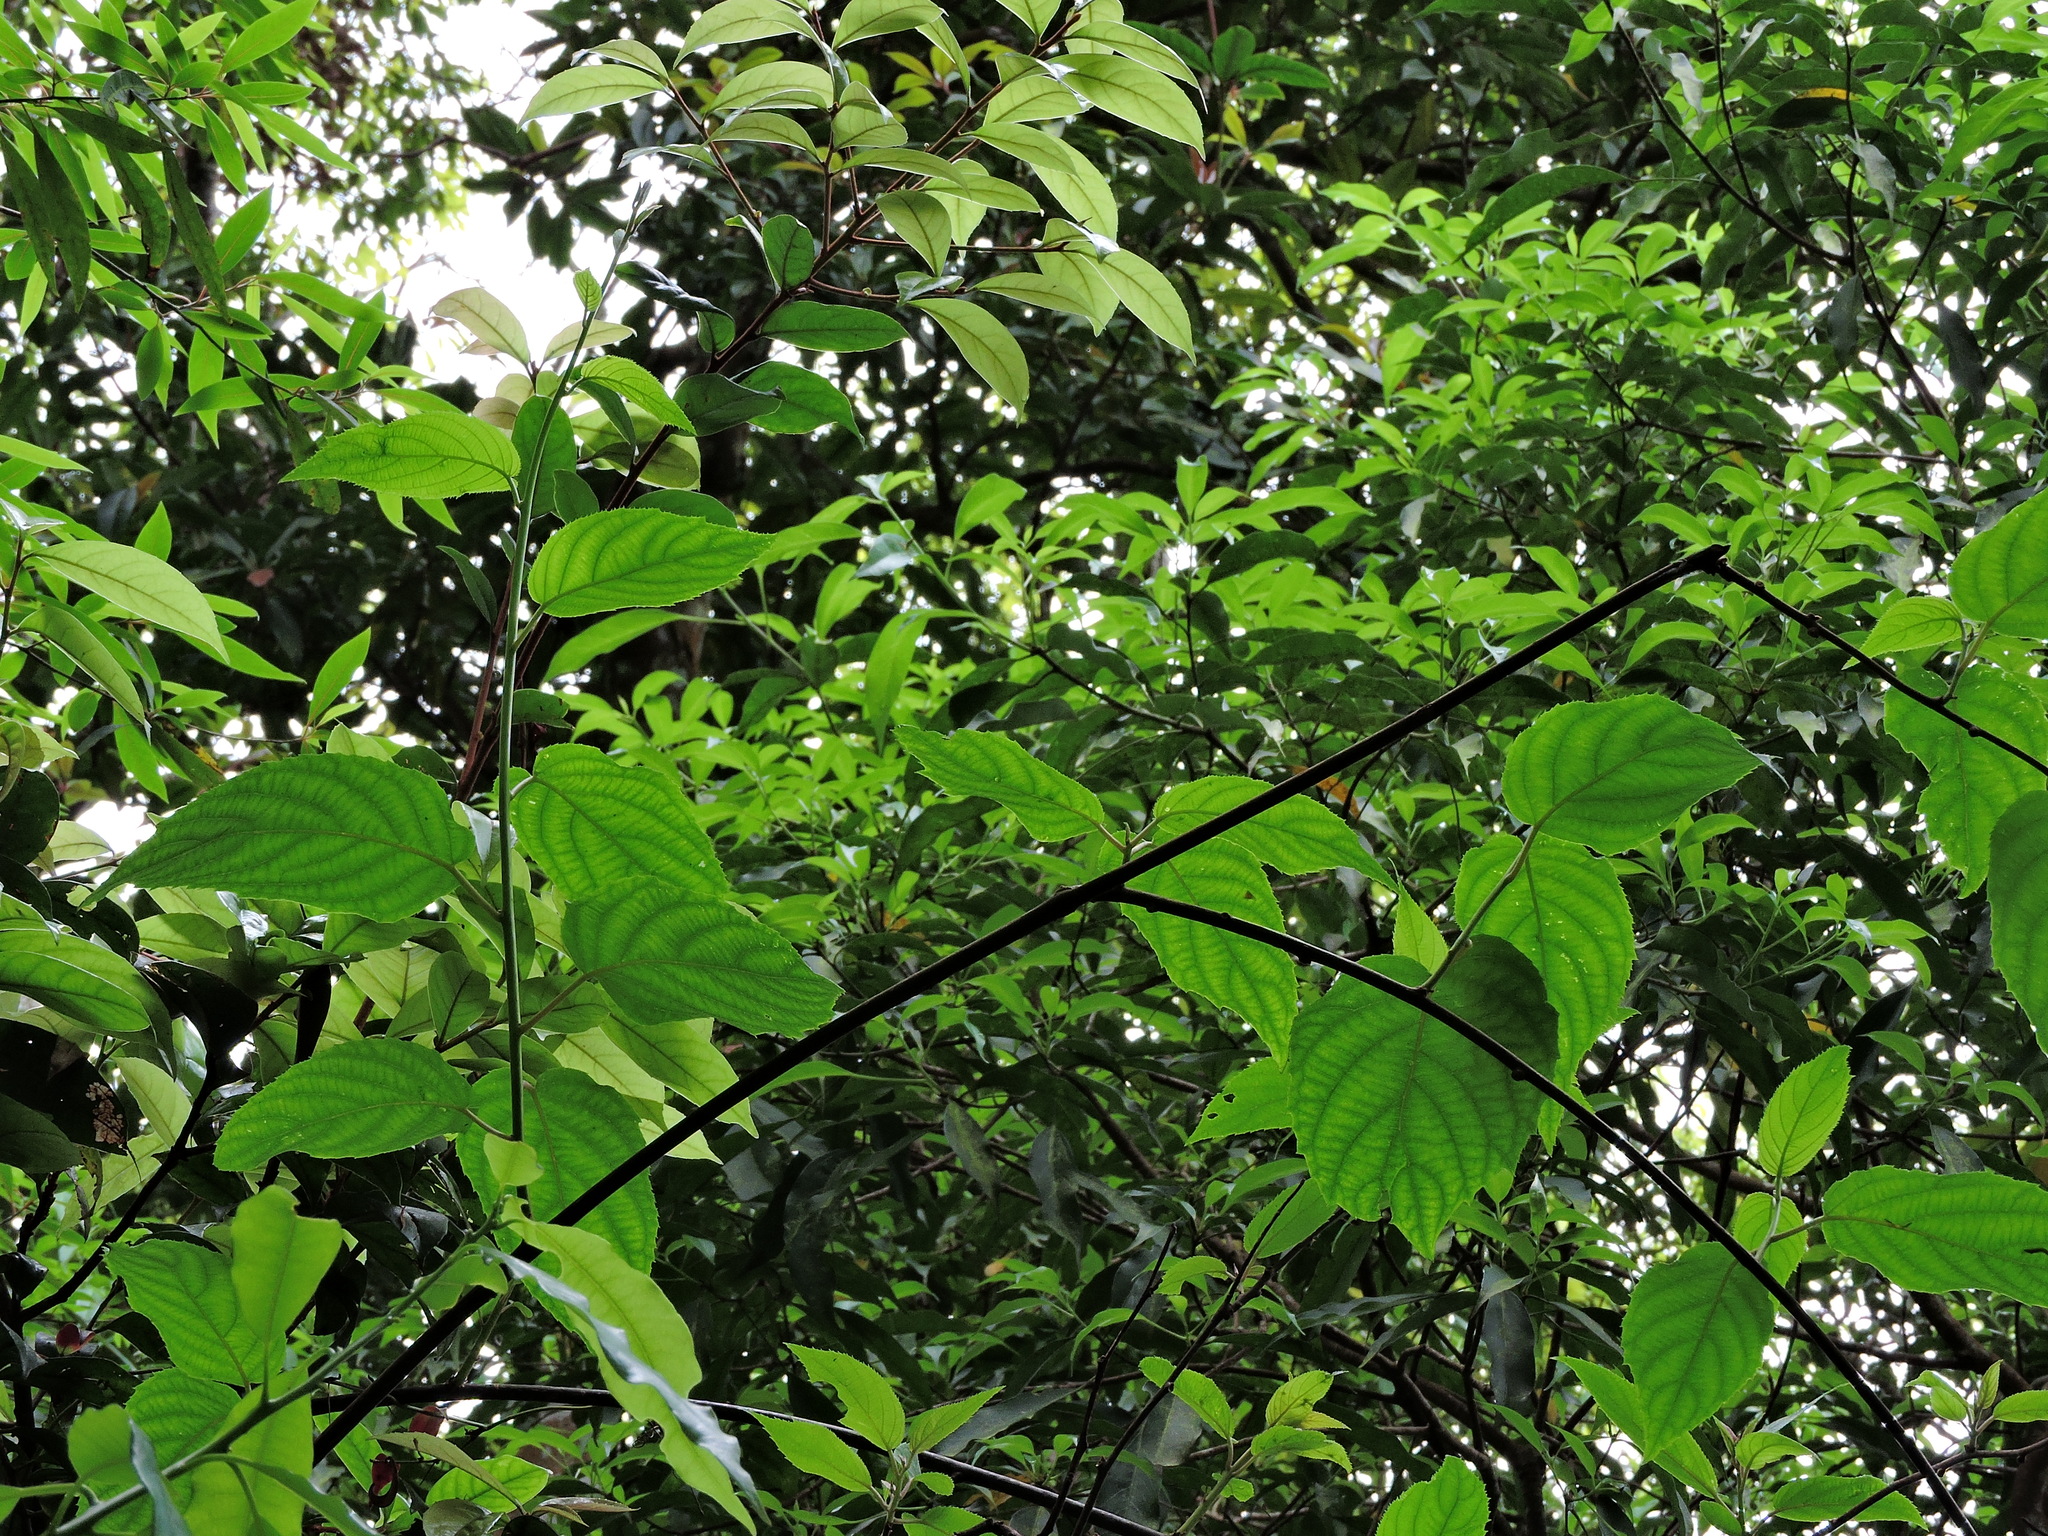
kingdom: Plantae
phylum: Tracheophyta
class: Magnoliopsida
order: Ericales
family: Actinidiaceae
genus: Actinidia
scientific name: Actinidia latifolia
